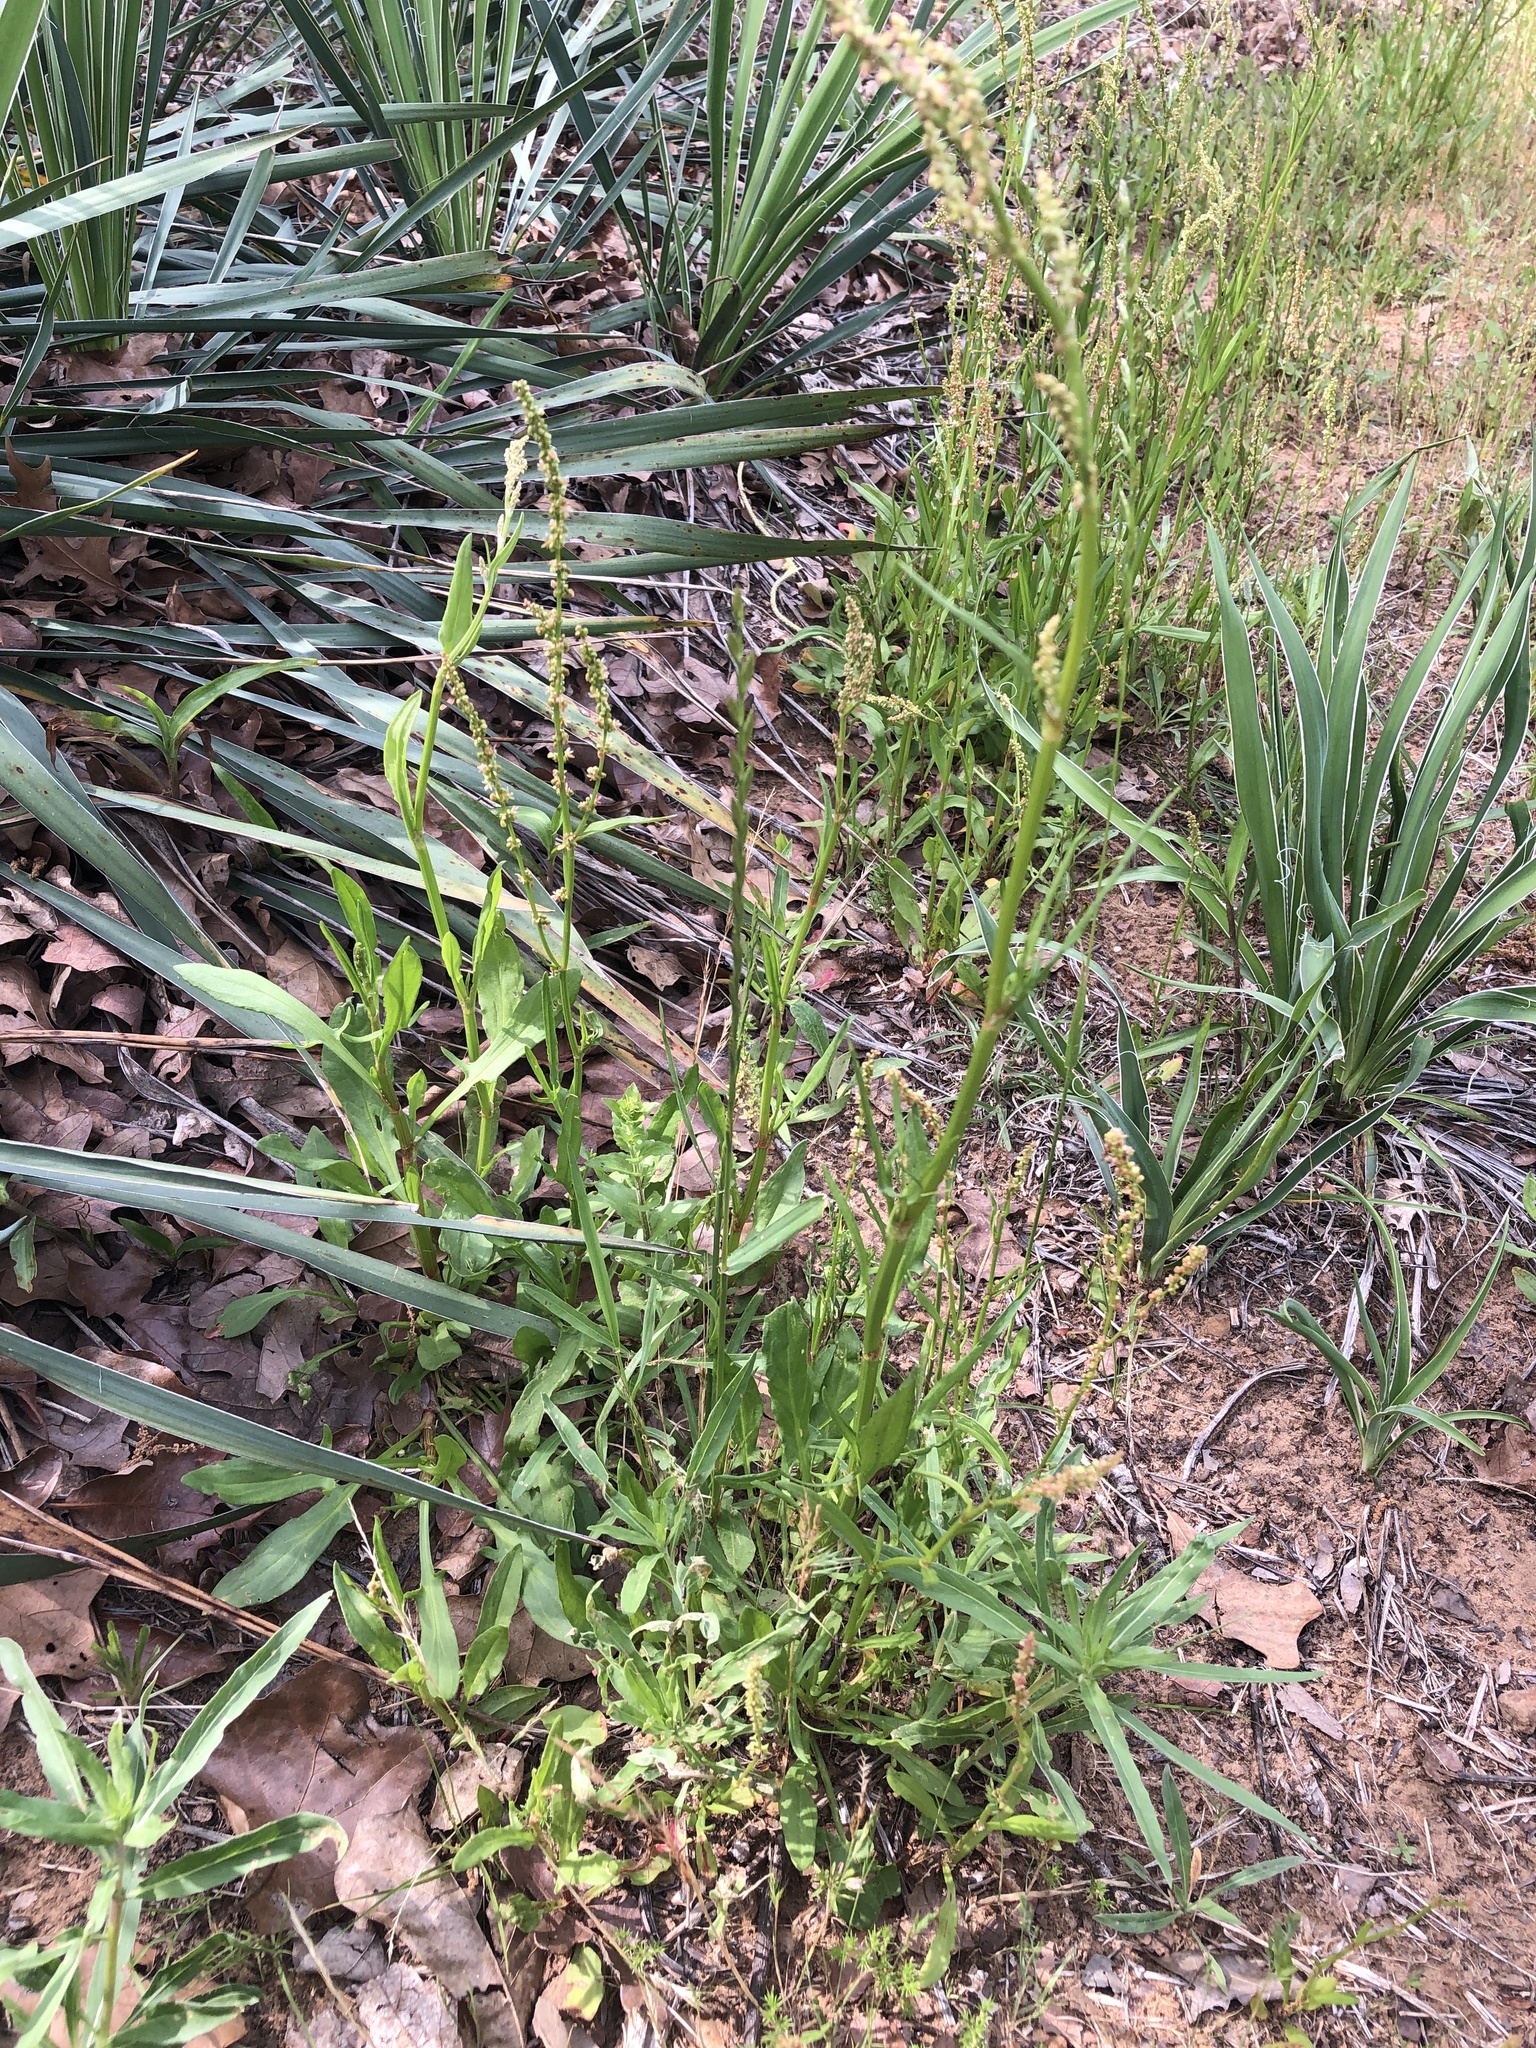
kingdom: Plantae
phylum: Tracheophyta
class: Magnoliopsida
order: Caryophyllales
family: Polygonaceae
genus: Rumex
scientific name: Rumex hastatulus
